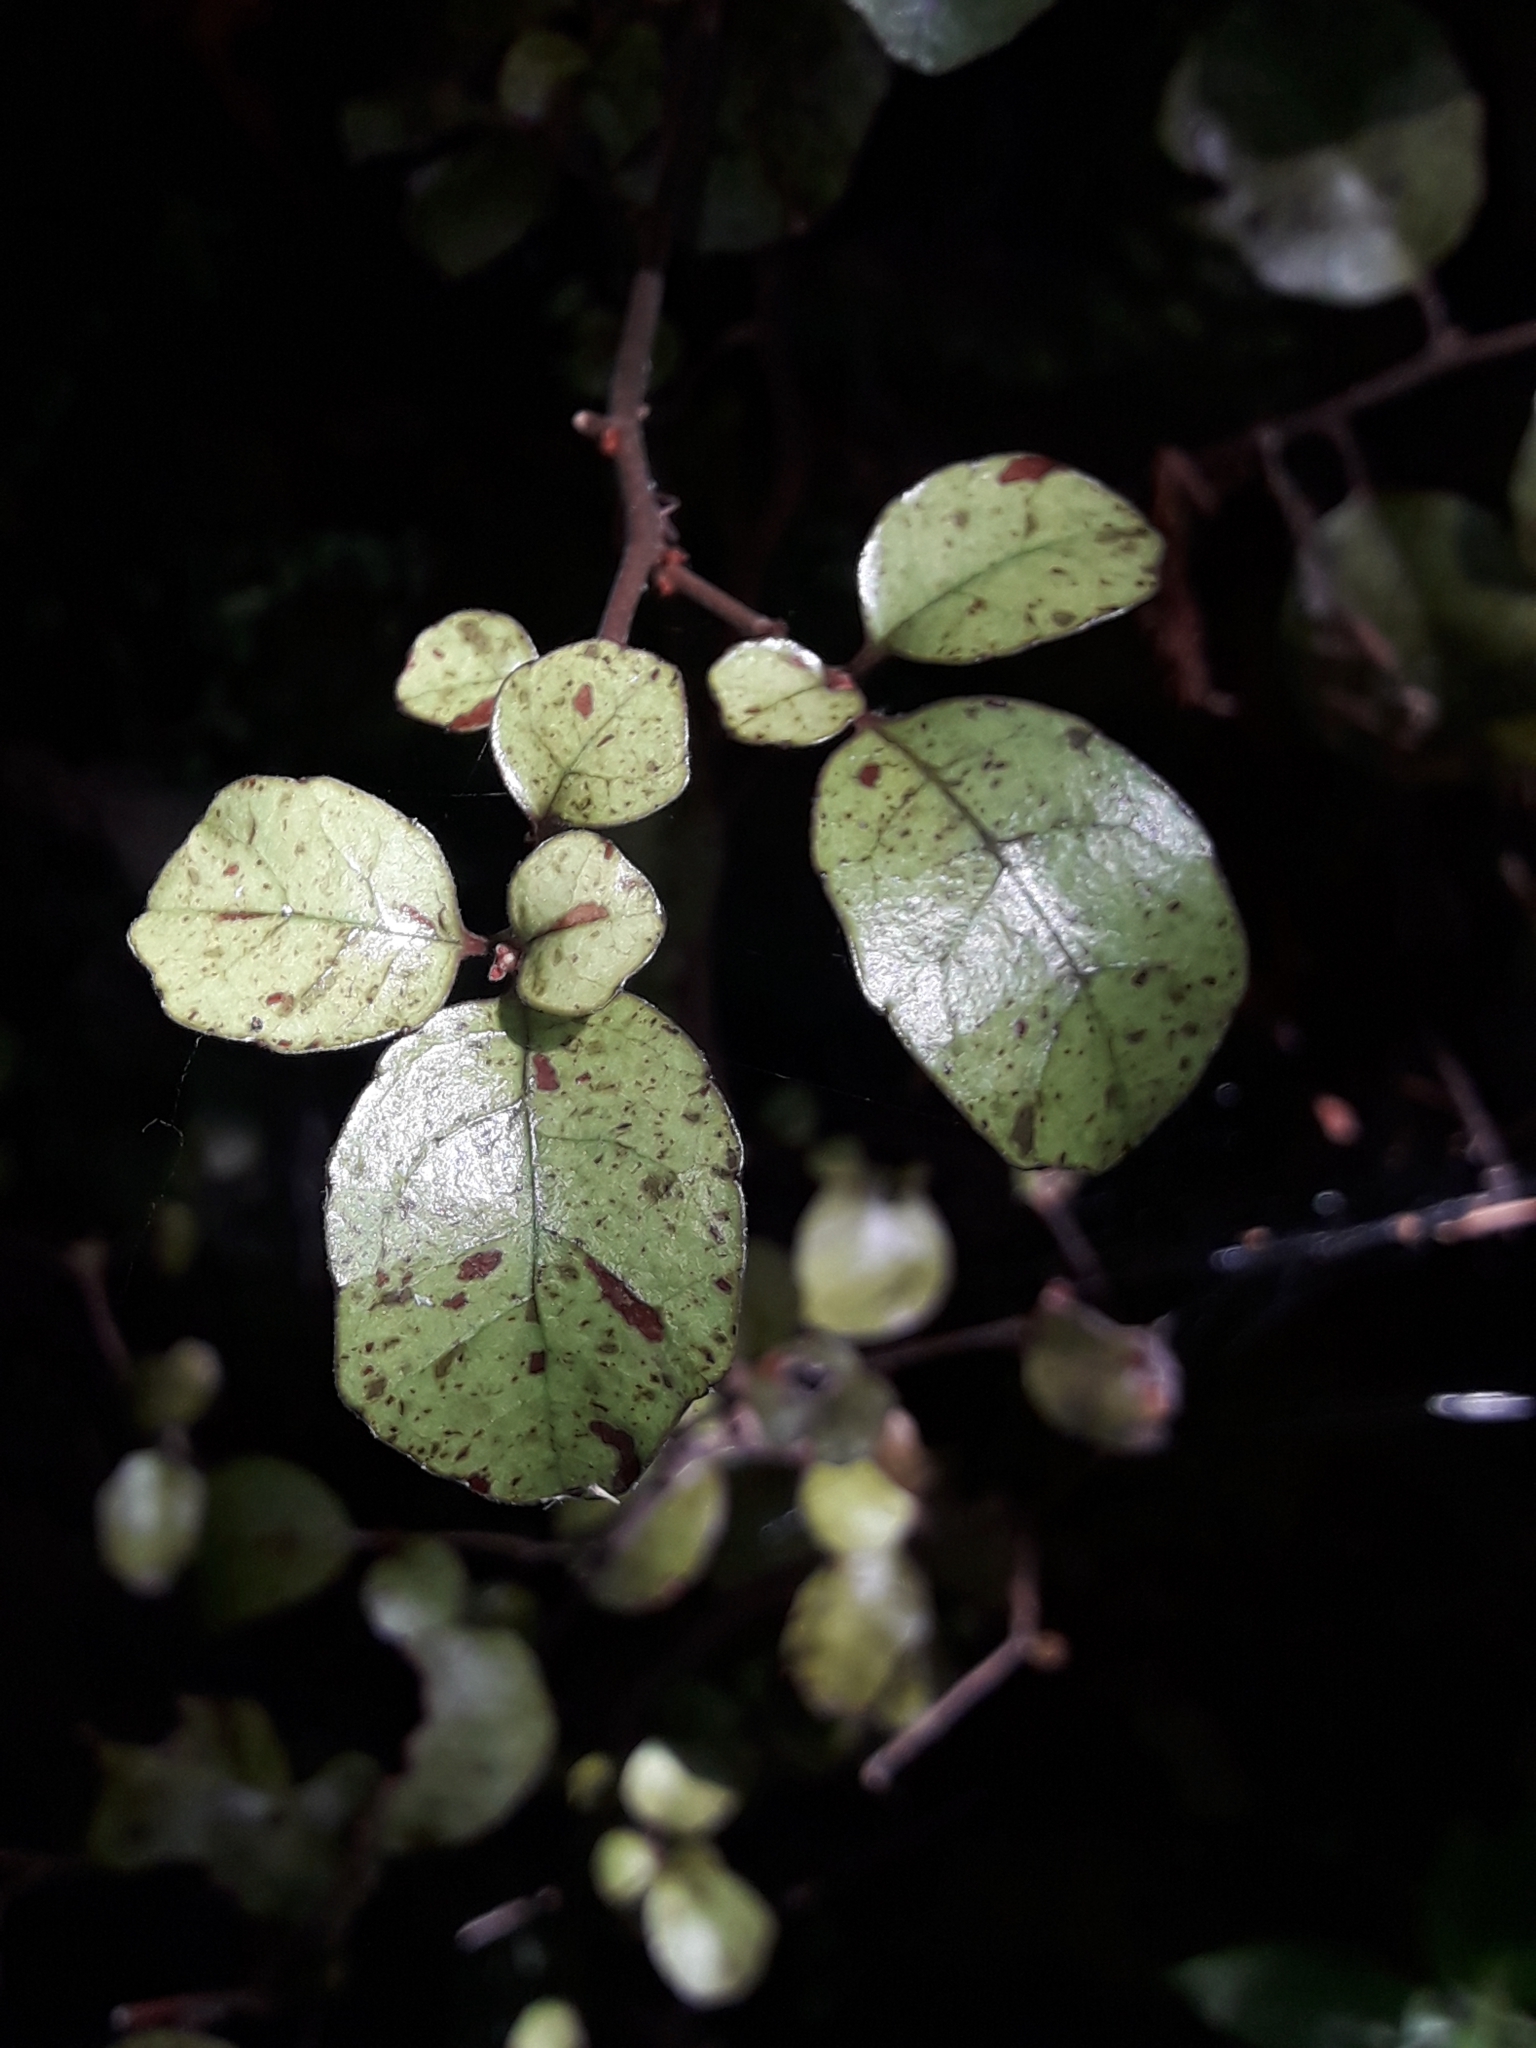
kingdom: Plantae
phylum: Tracheophyta
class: Magnoliopsida
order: Asterales
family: Alseuosmiaceae
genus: Alseuosmia
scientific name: Alseuosmia banksii
